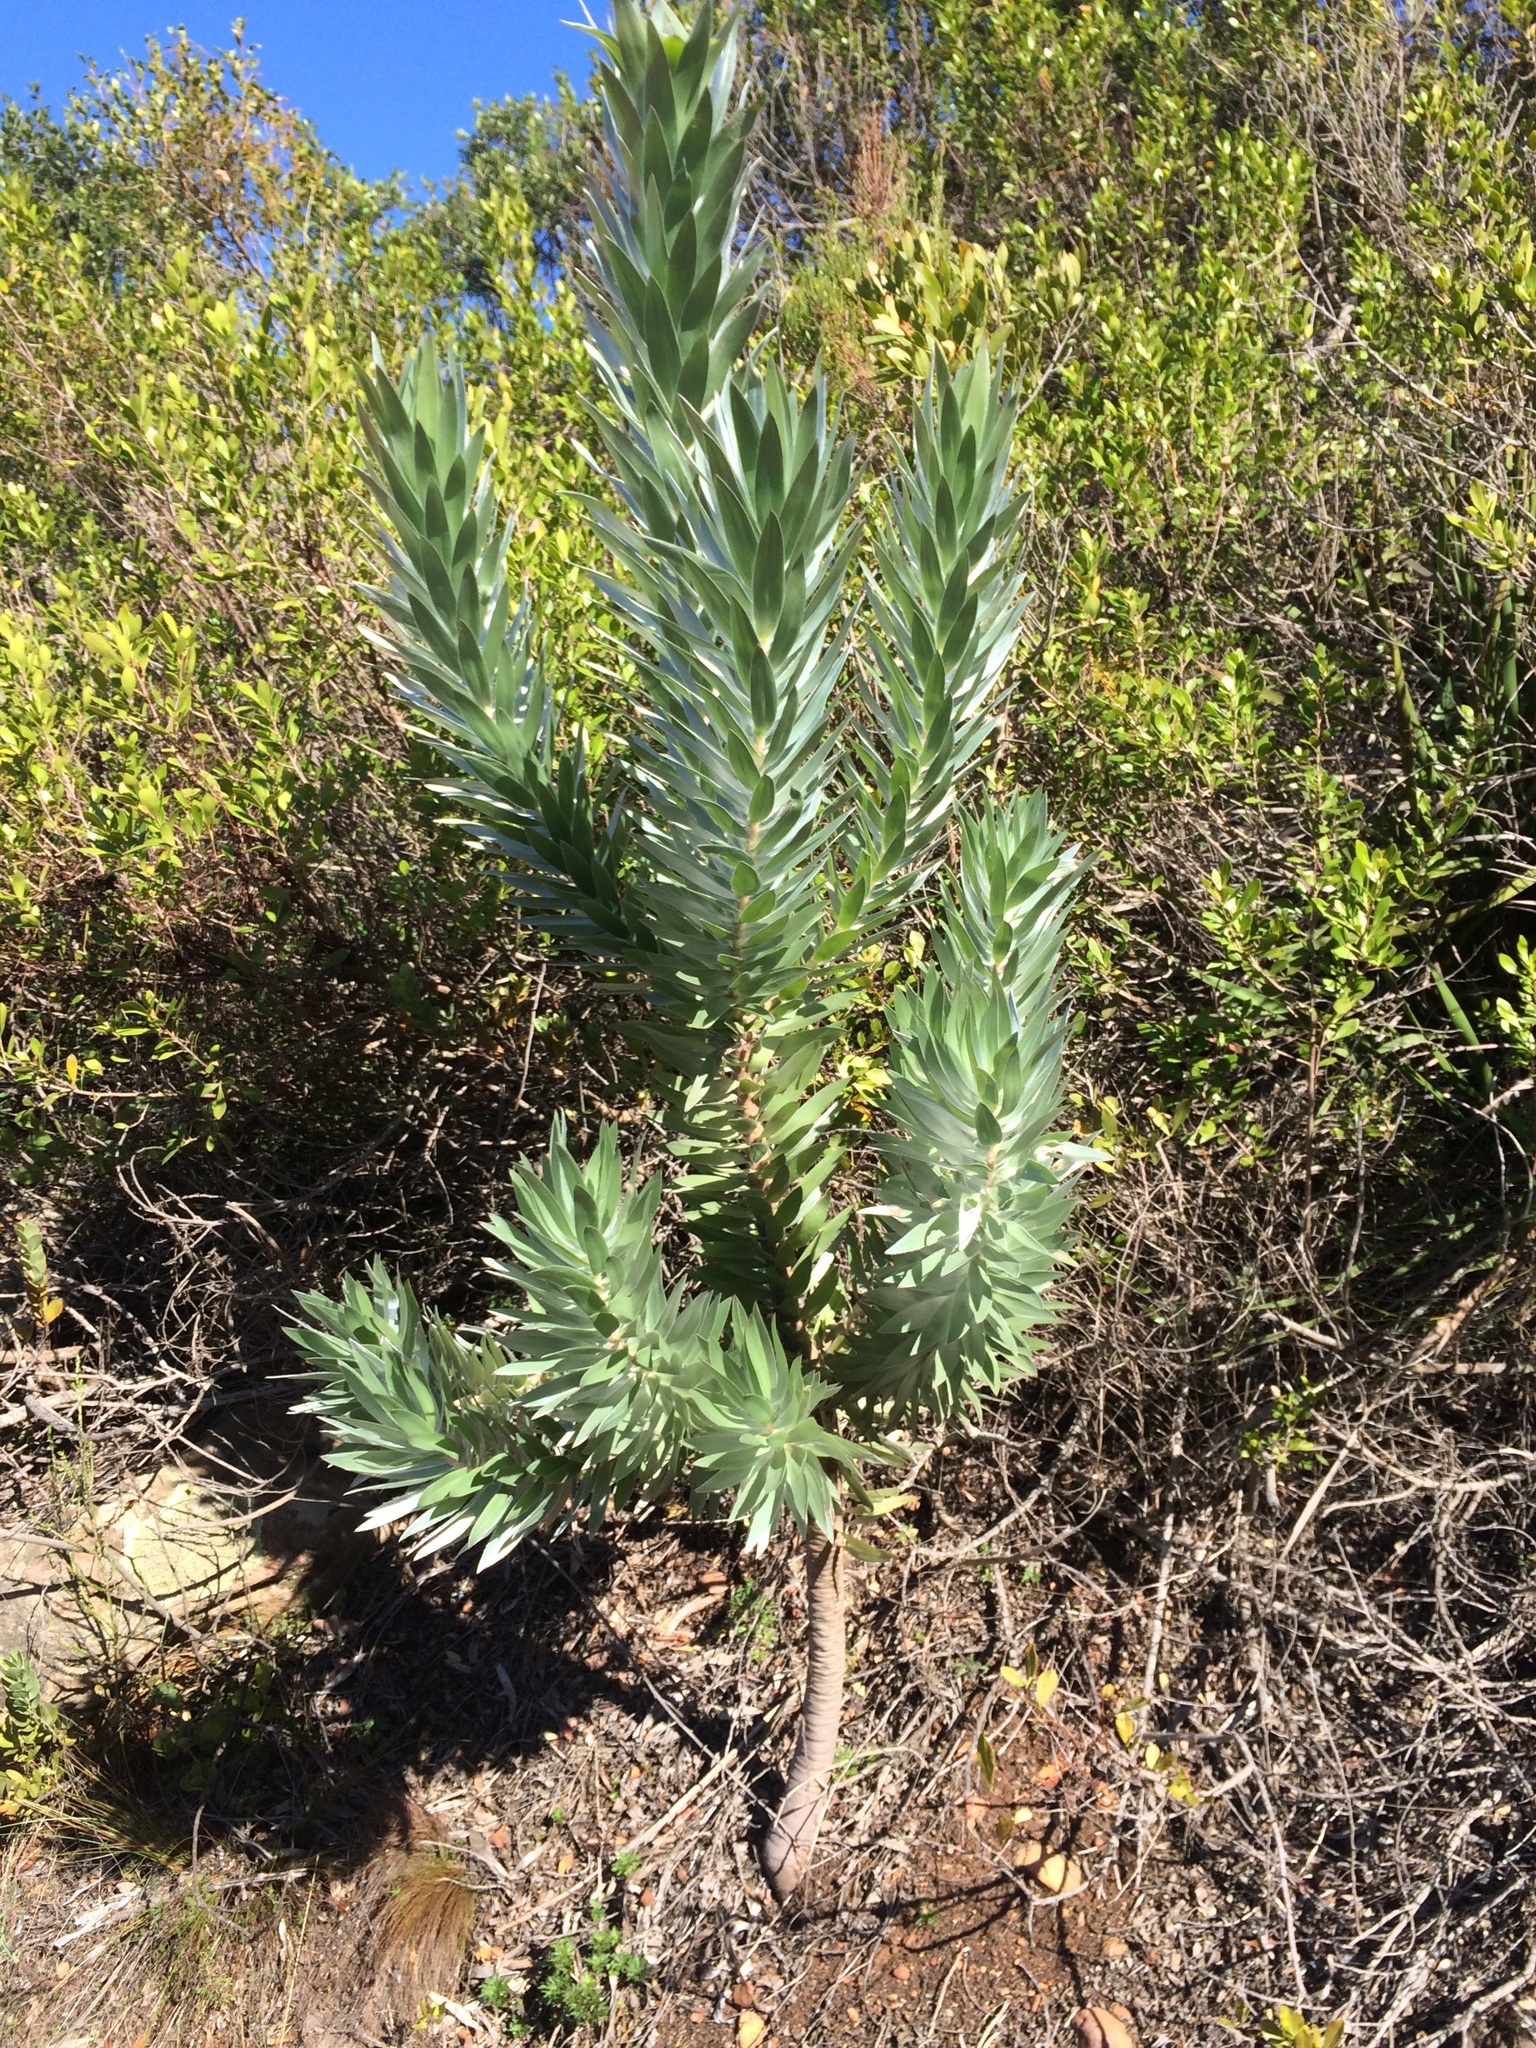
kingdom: Plantae
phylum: Tracheophyta
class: Magnoliopsida
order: Proteales
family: Proteaceae
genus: Leucadendron
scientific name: Leucadendron argenteum
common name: Cape silver tree
